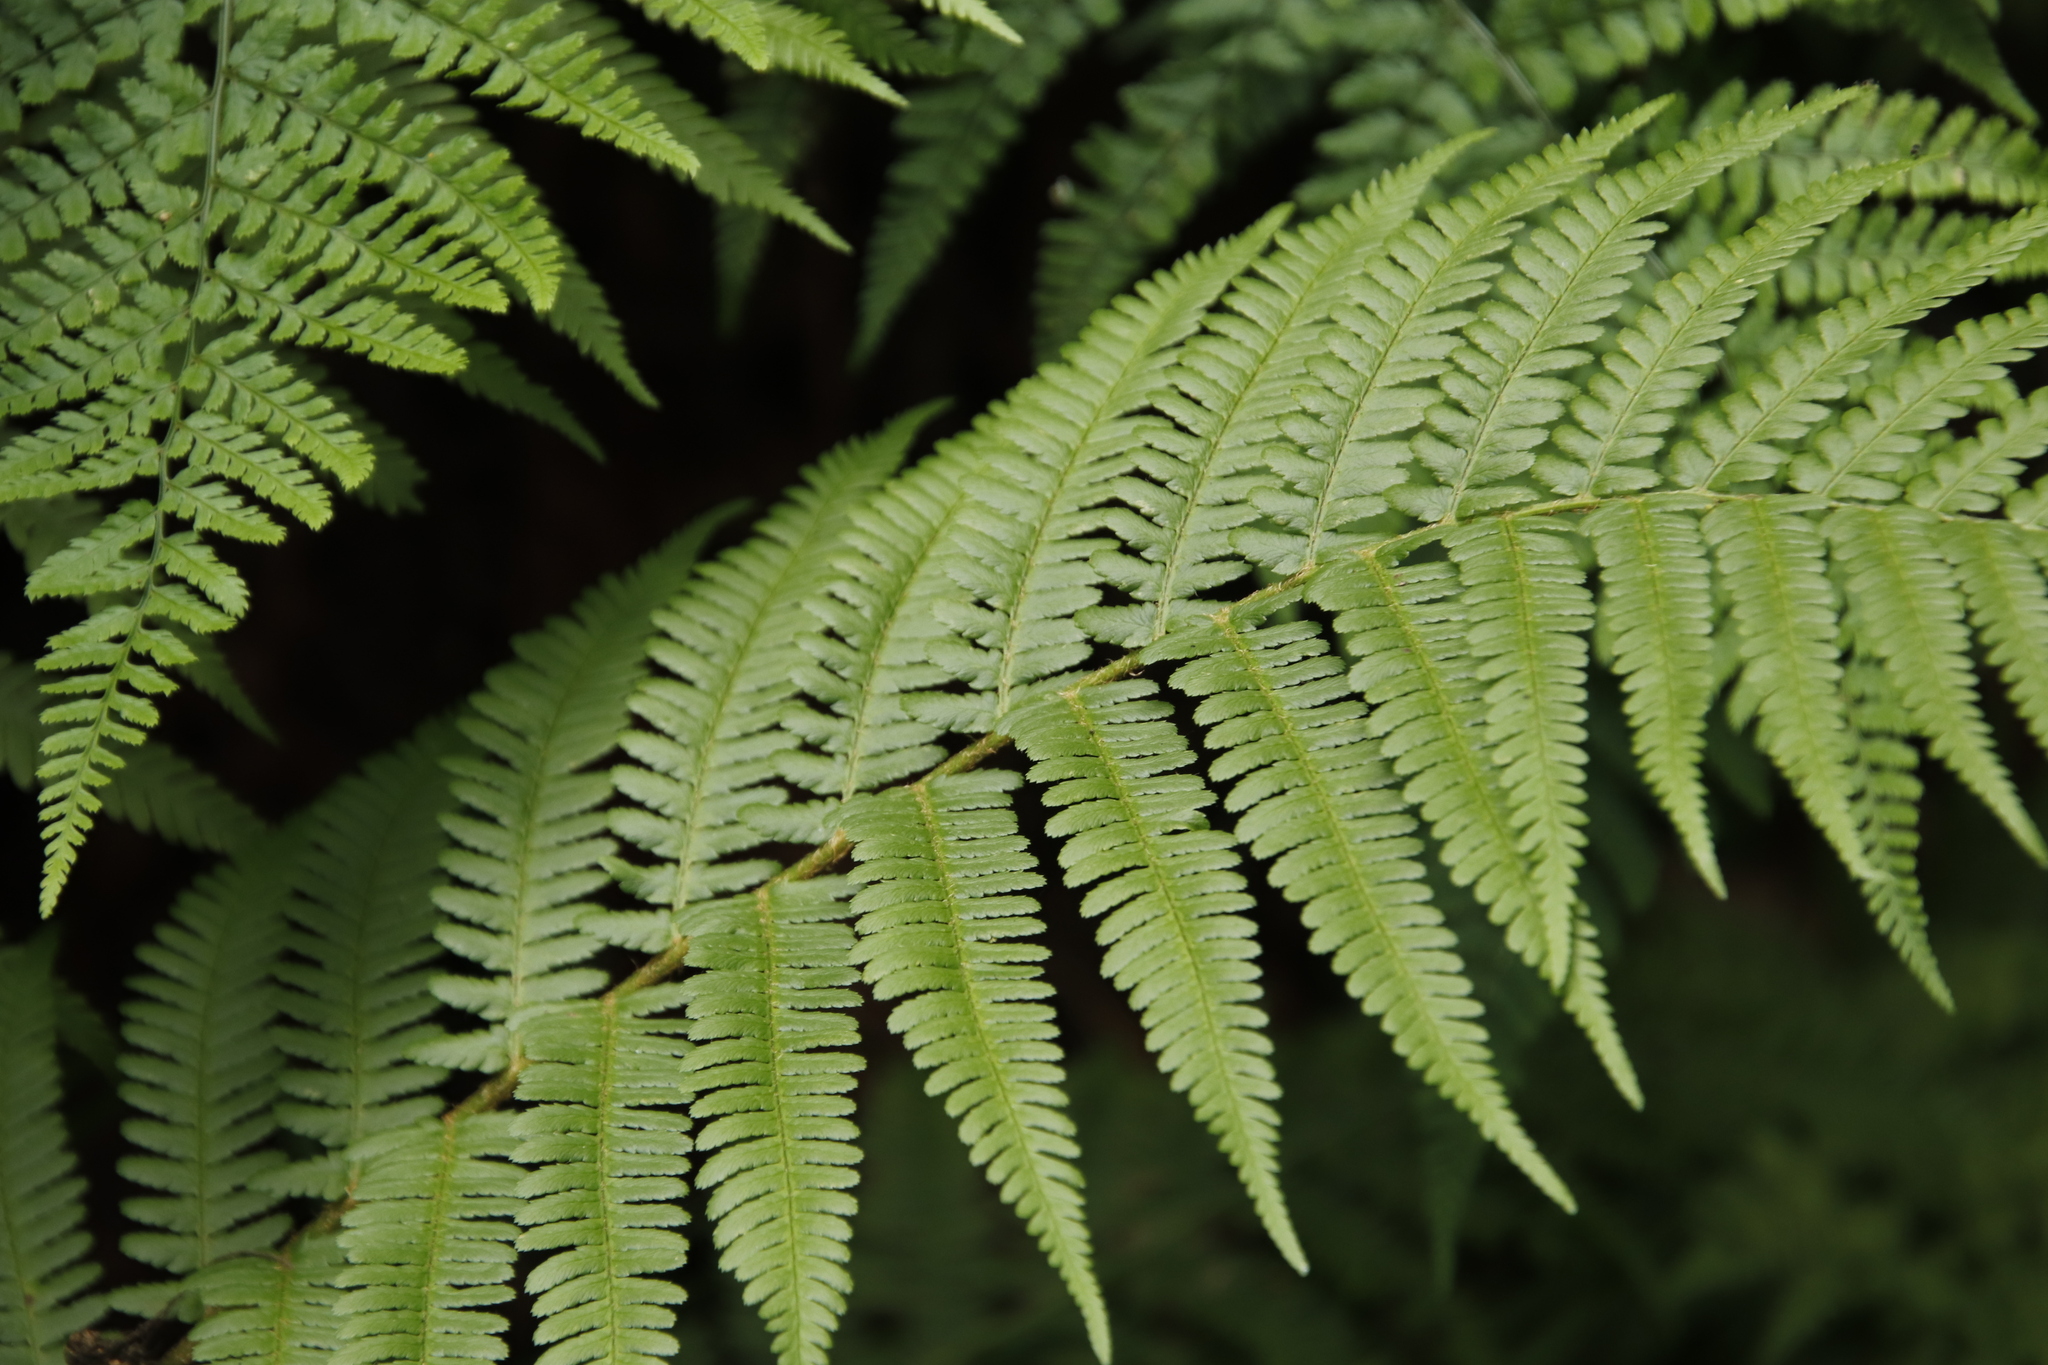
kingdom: Plantae
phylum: Tracheophyta
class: Polypodiopsida
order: Polypodiales
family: Dryopteridaceae
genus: Dryopteris
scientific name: Dryopteris filix-mas
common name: Male fern
